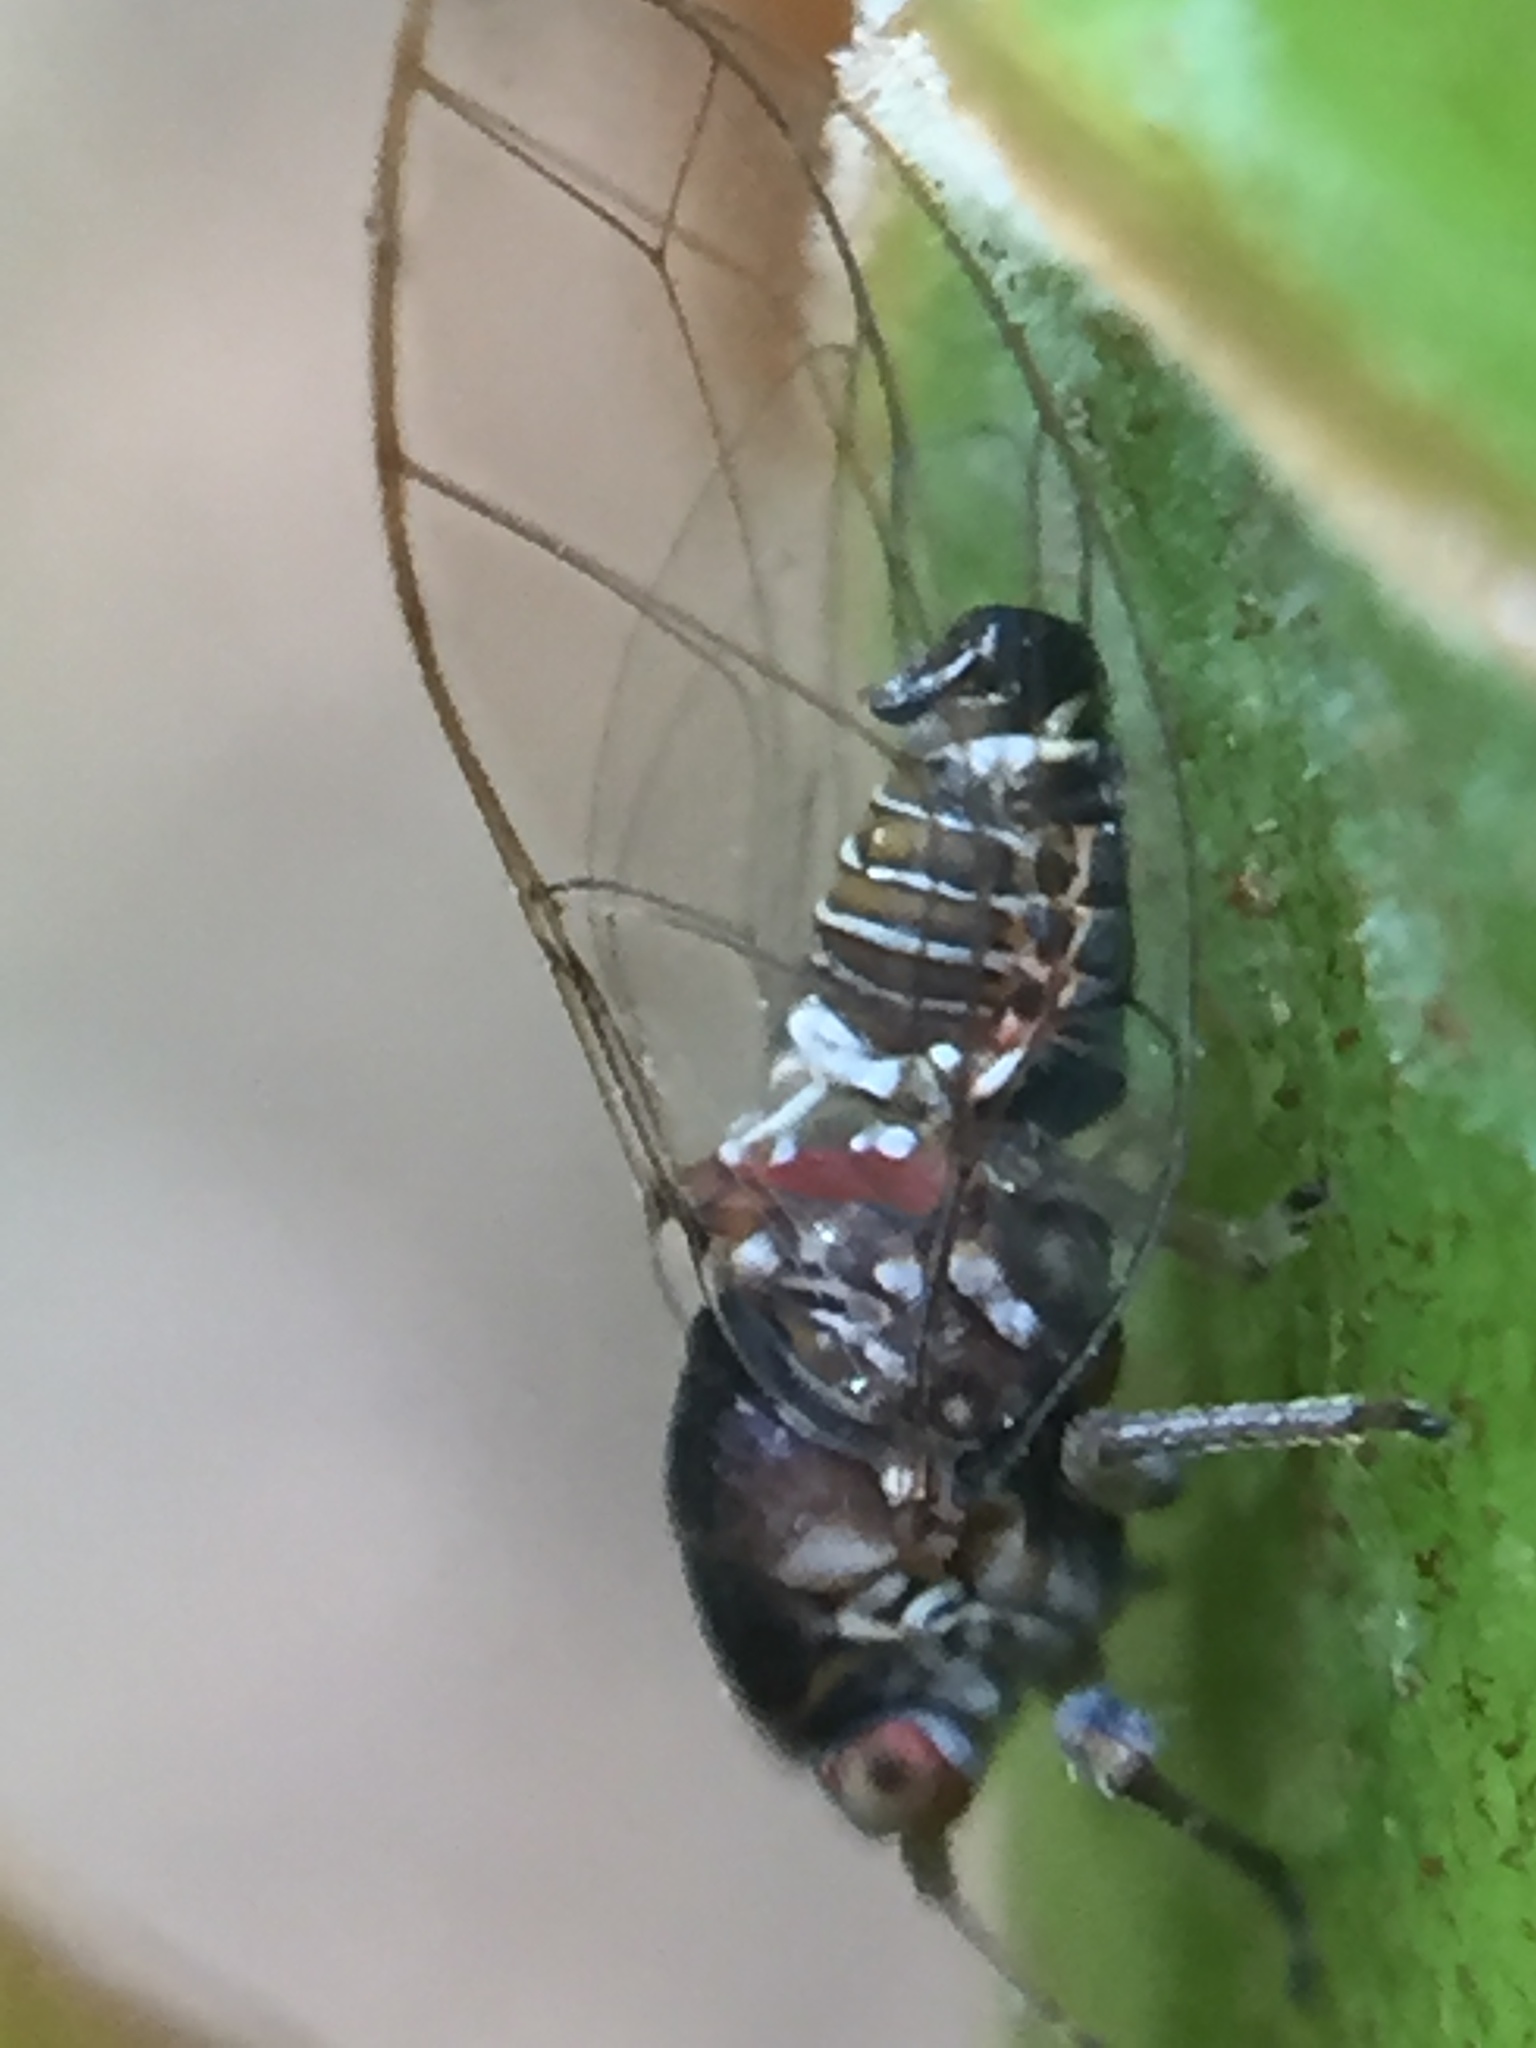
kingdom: Animalia
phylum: Arthropoda
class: Insecta
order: Hemiptera
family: Homotomidae
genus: Mycopsylla
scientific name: Mycopsylla obliqua
